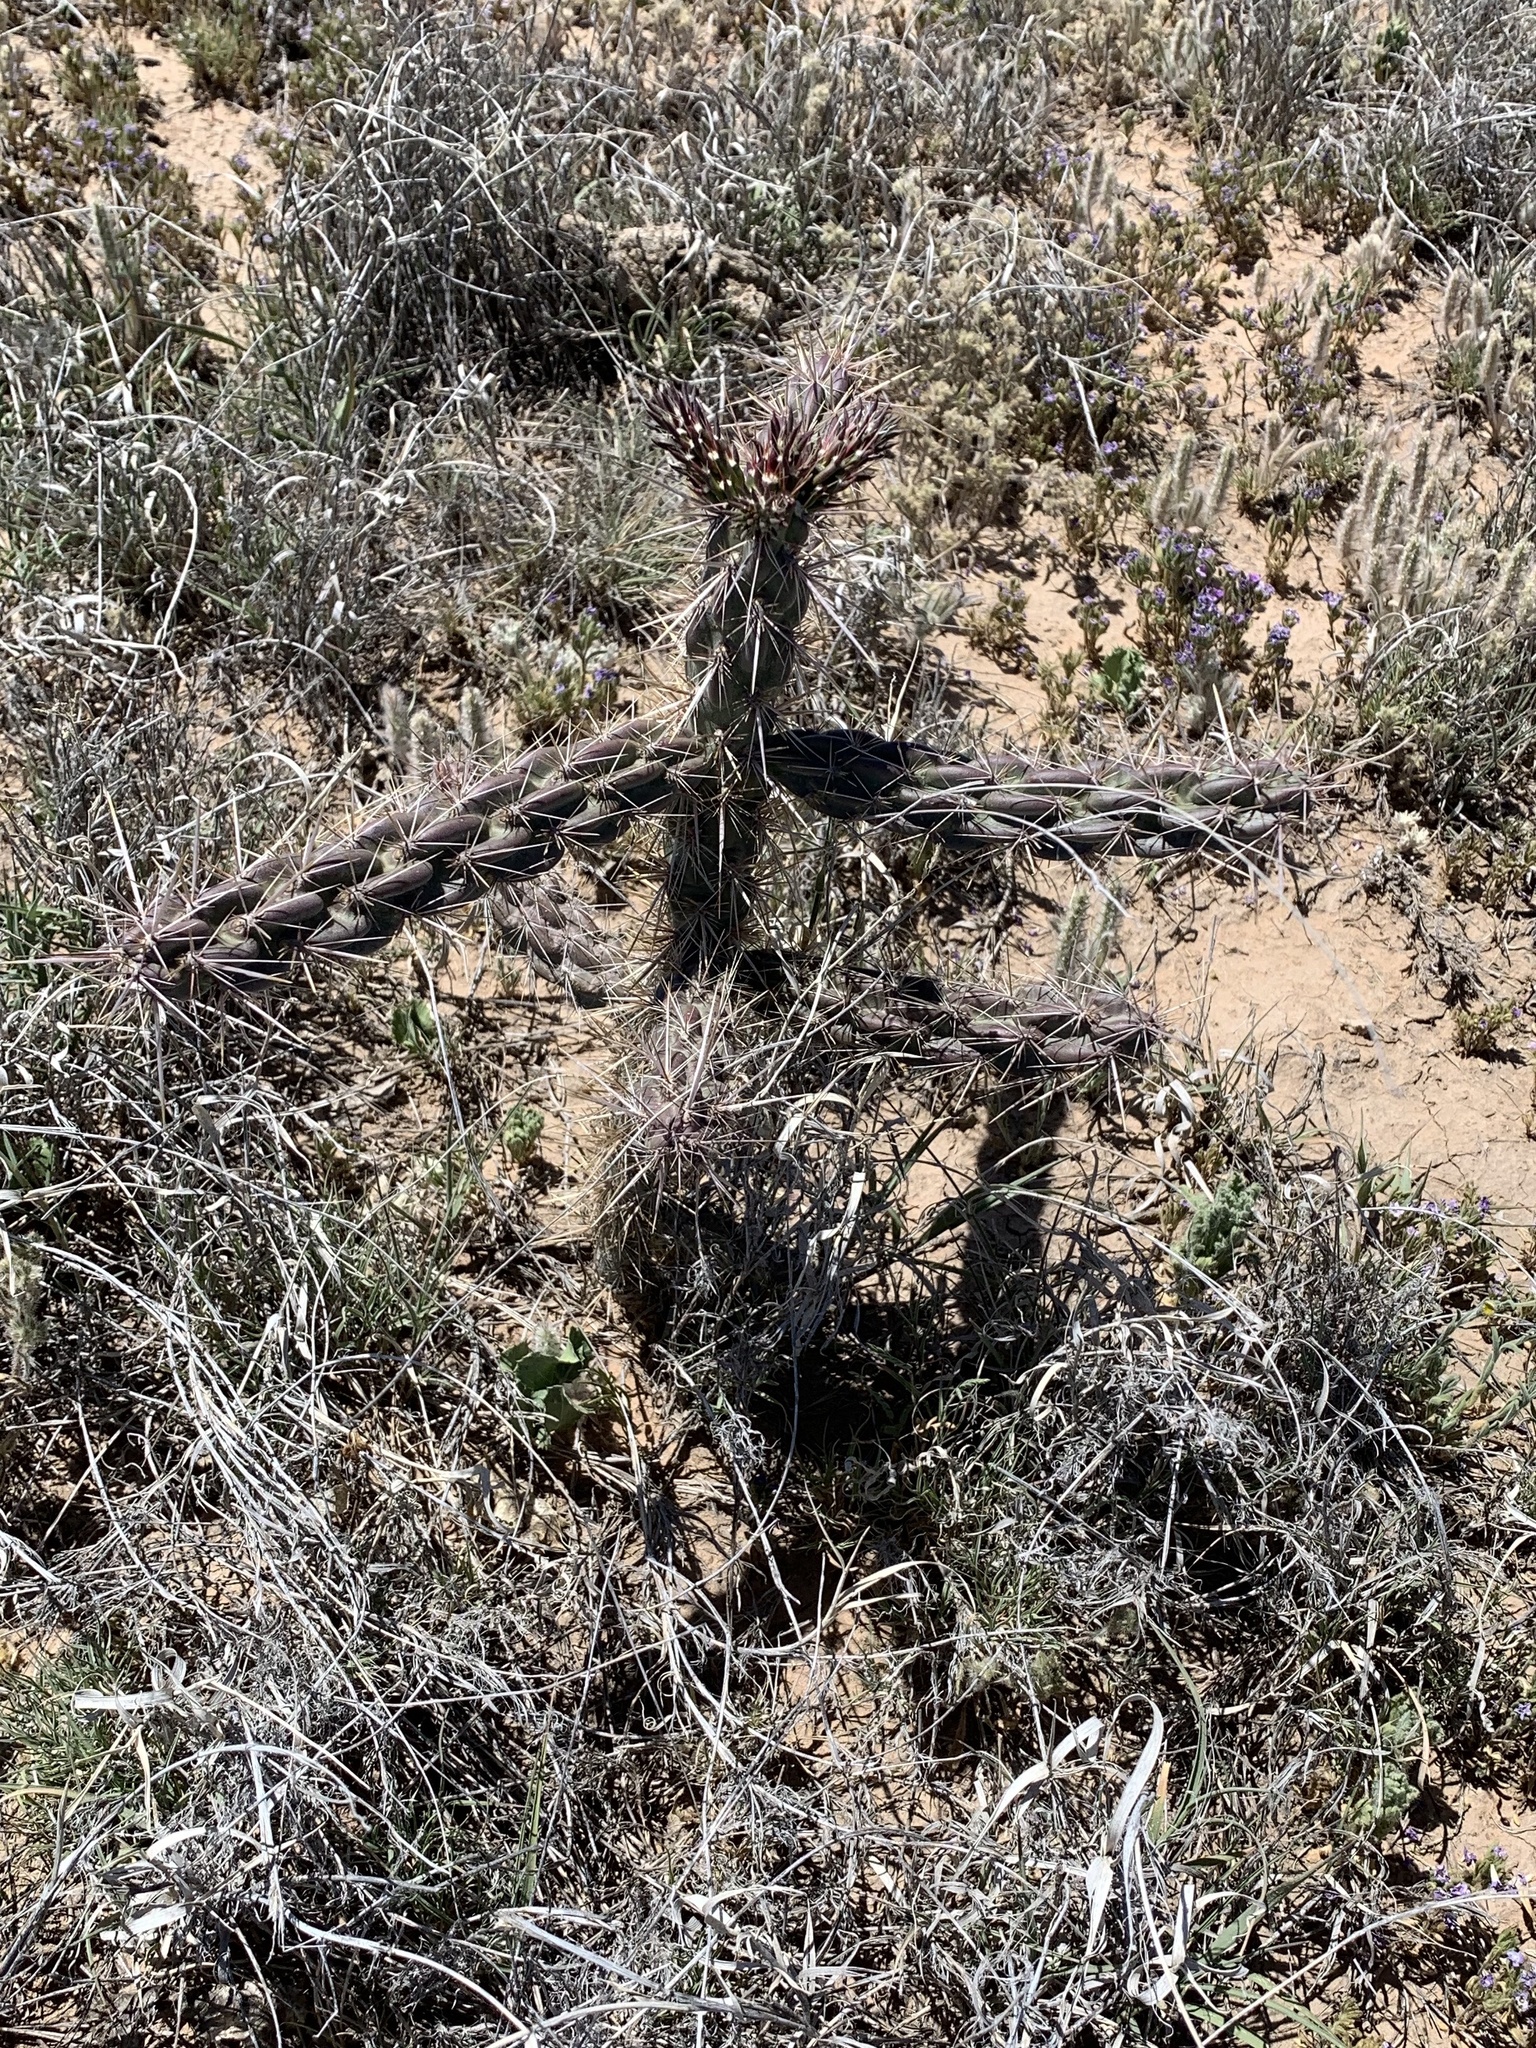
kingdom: Plantae
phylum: Tracheophyta
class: Magnoliopsida
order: Caryophyllales
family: Cactaceae
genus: Cylindropuntia
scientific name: Cylindropuntia imbricata
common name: Candelabrum cactus
